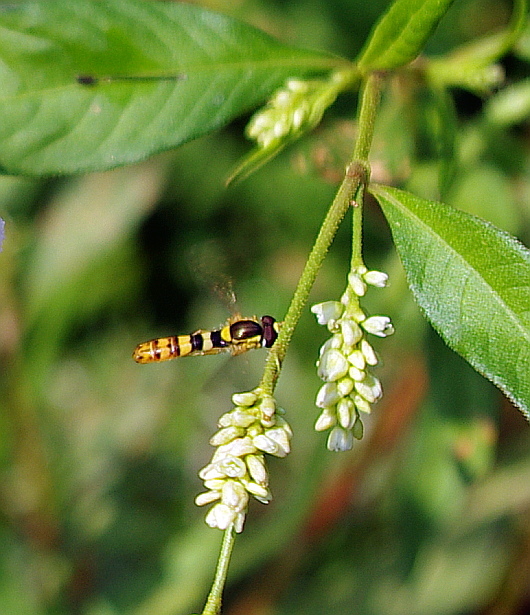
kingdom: Animalia
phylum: Arthropoda
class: Insecta
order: Diptera
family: Syrphidae
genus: Sphaerophoria
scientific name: Sphaerophoria
